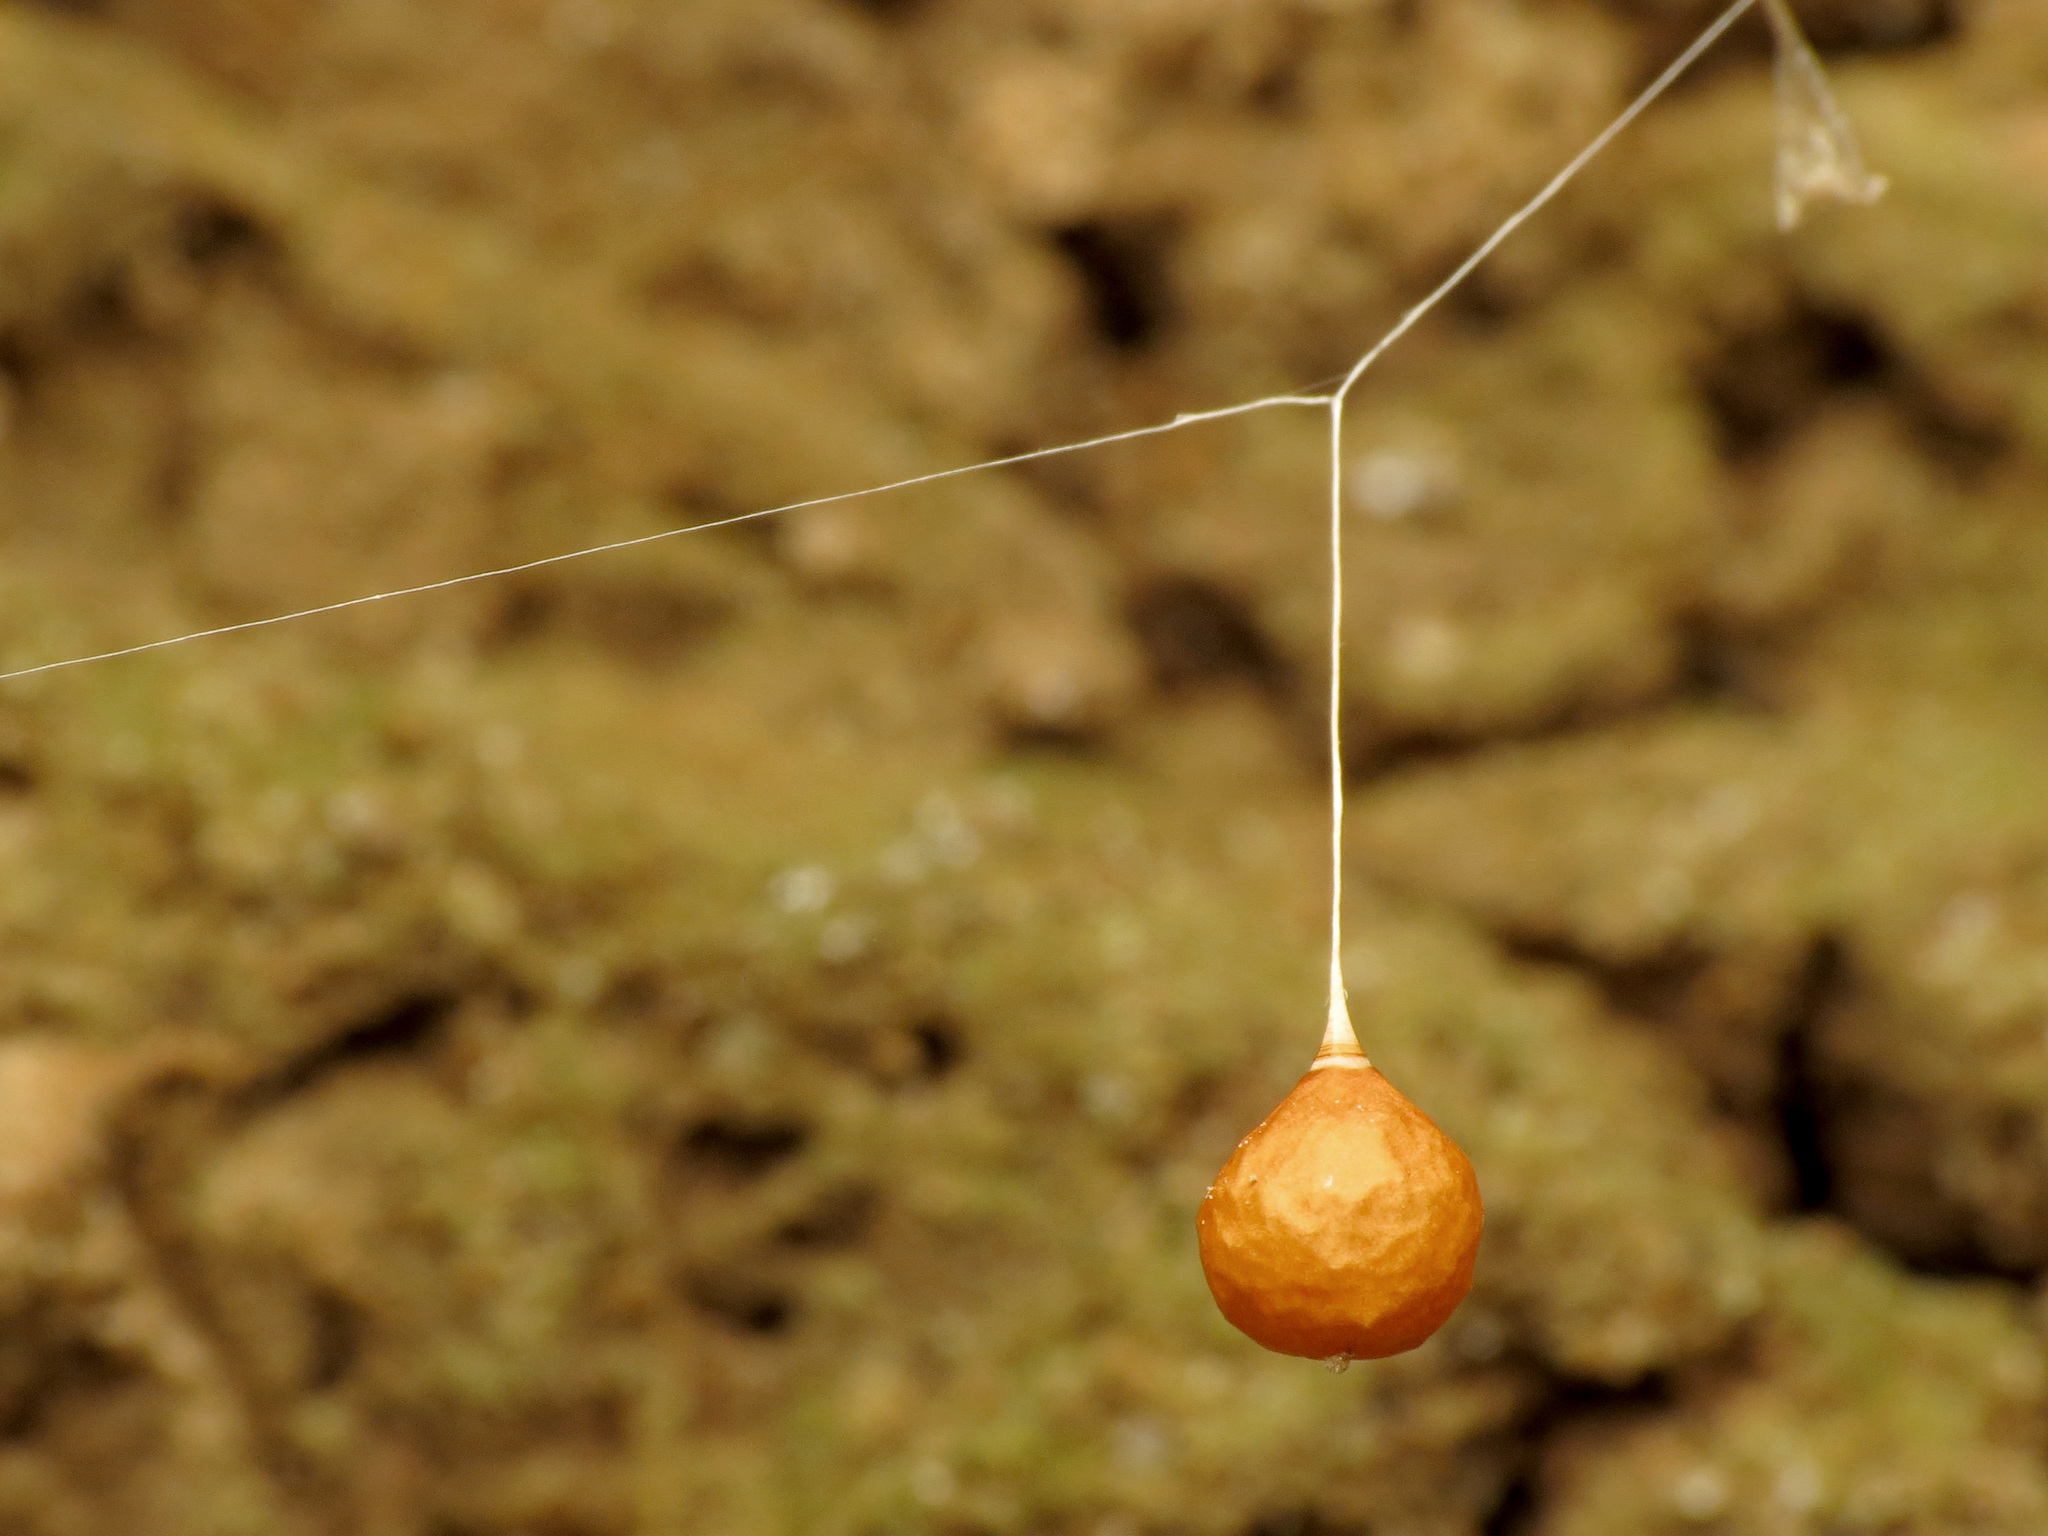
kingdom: Animalia
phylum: Arthropoda
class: Arachnida
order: Araneae
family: Theridiosomatidae
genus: Theridiosoma
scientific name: Theridiosoma gemmosum
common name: Ray spider
